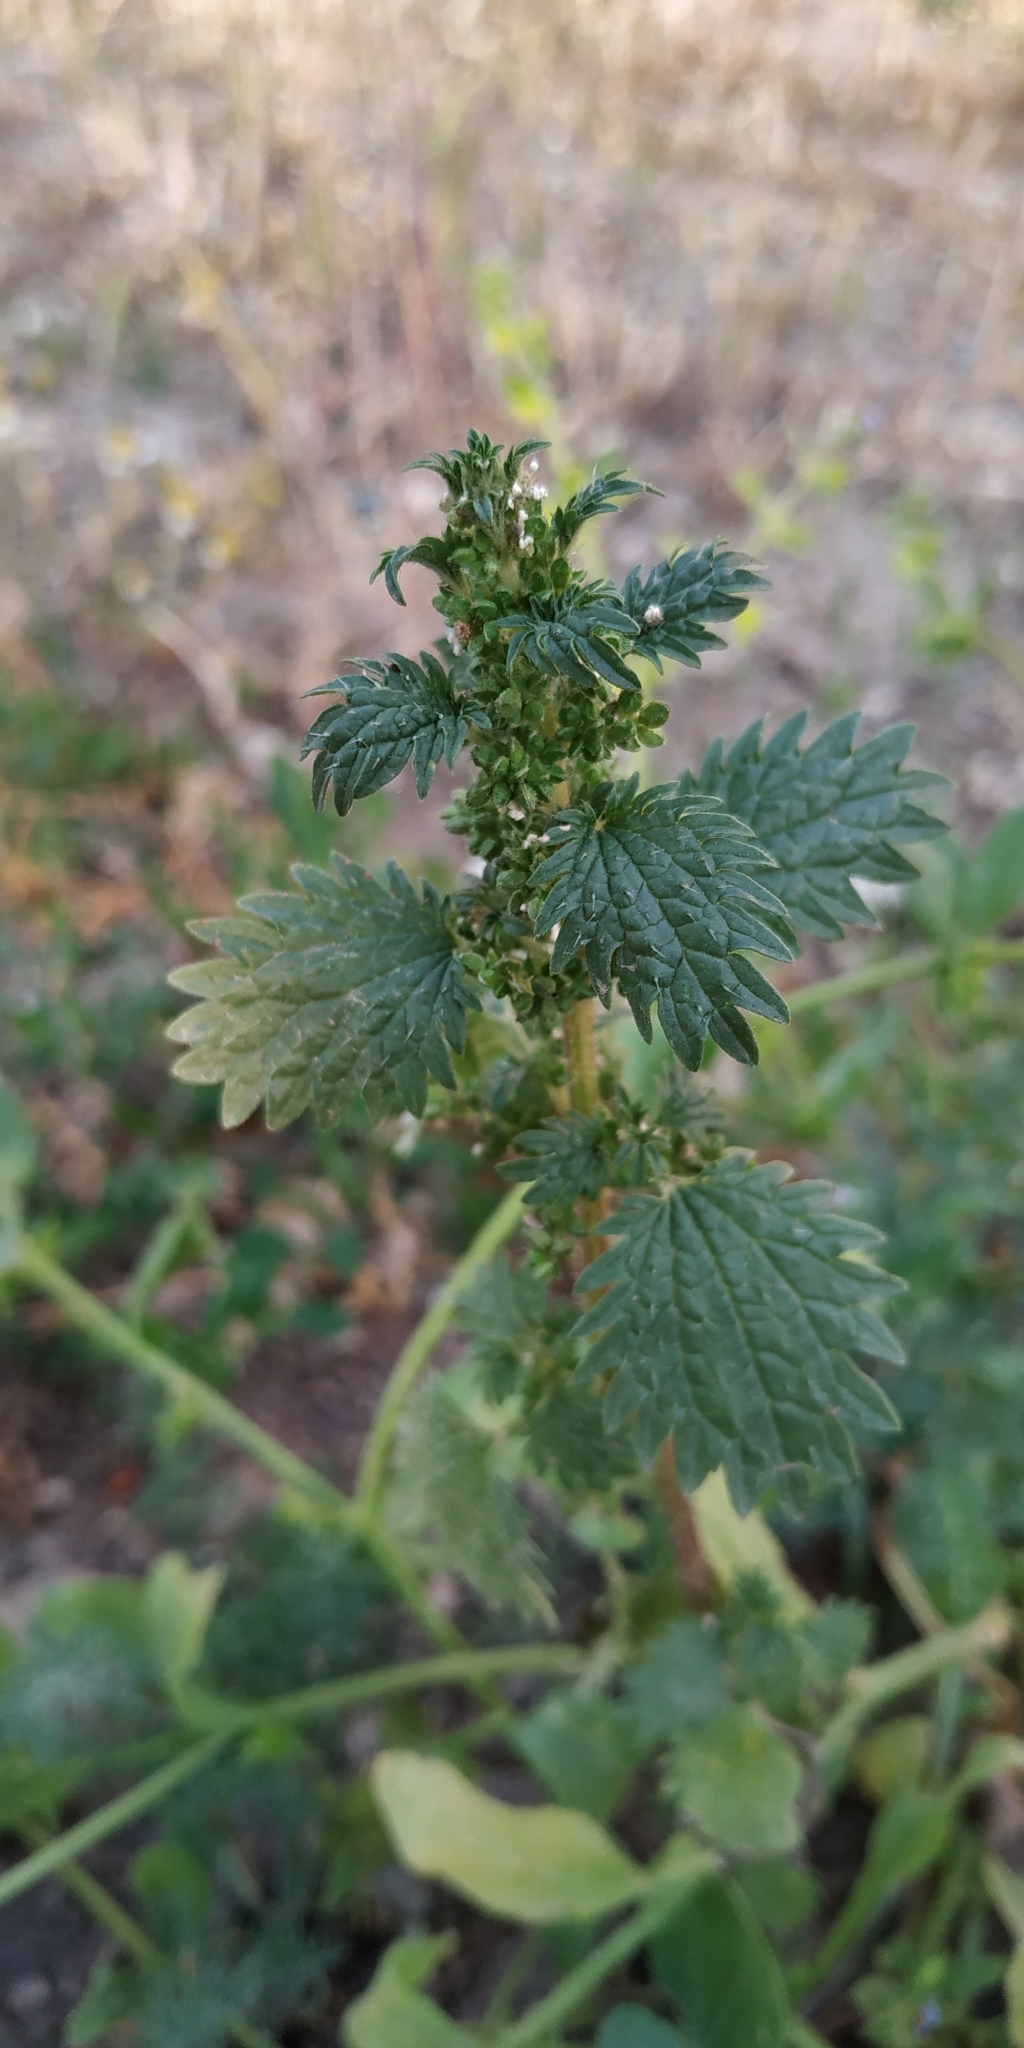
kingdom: Plantae
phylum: Tracheophyta
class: Magnoliopsida
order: Rosales
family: Urticaceae
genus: Urtica
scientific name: Urtica urens
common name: Dwarf nettle
